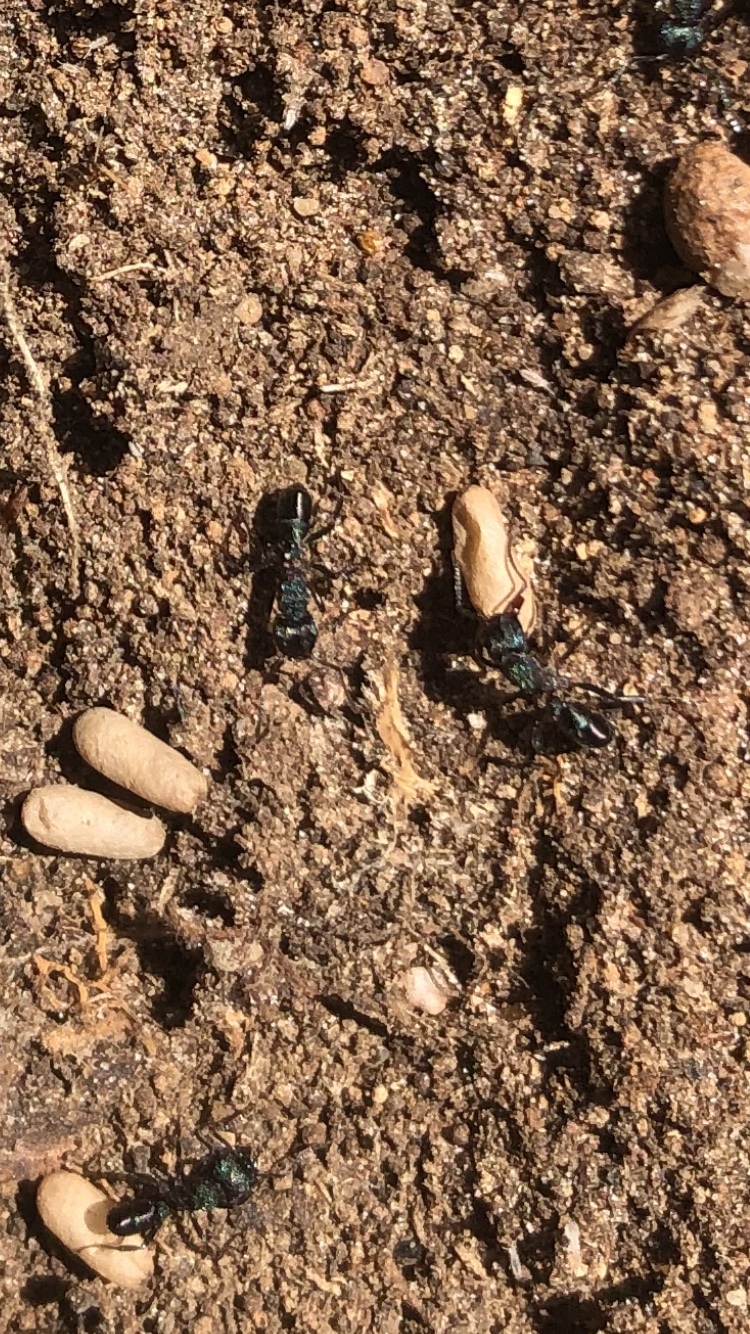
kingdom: Animalia
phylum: Arthropoda
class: Insecta
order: Hymenoptera
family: Formicidae
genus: Rhytidoponera
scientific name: Rhytidoponera metallica
